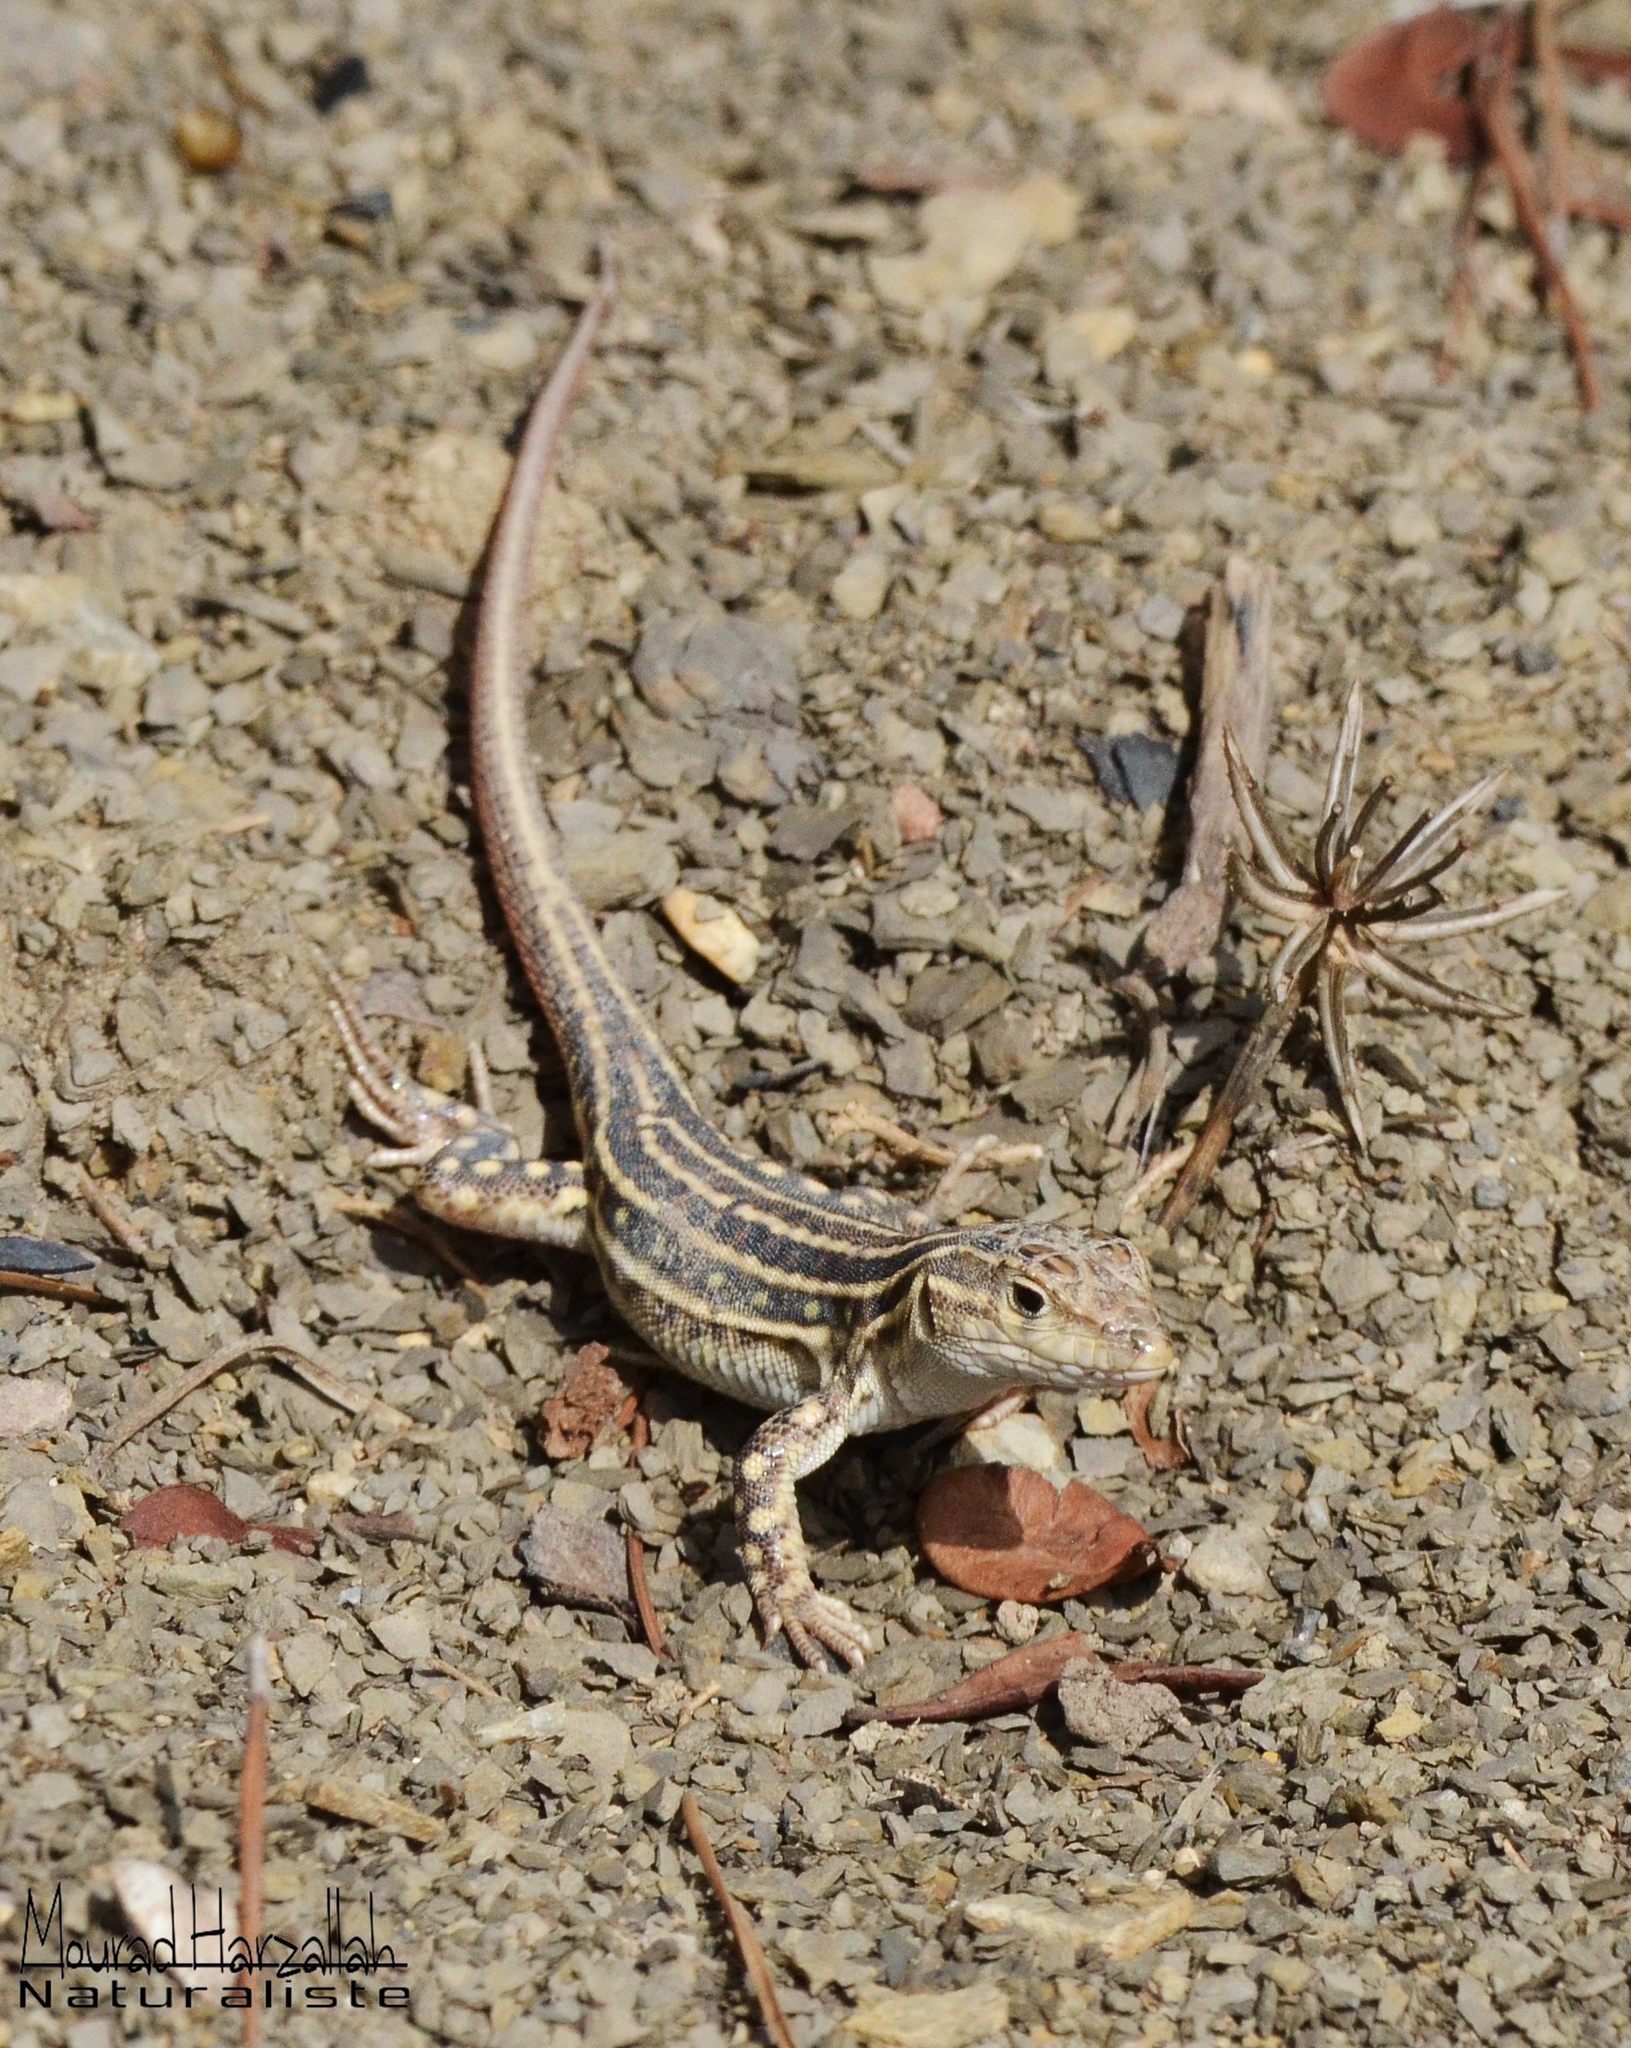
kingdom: Animalia
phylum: Chordata
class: Squamata
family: Lacertidae
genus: Acanthodactylus
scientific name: Acanthodactylus erythrurus
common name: Spiny-footed lizard
